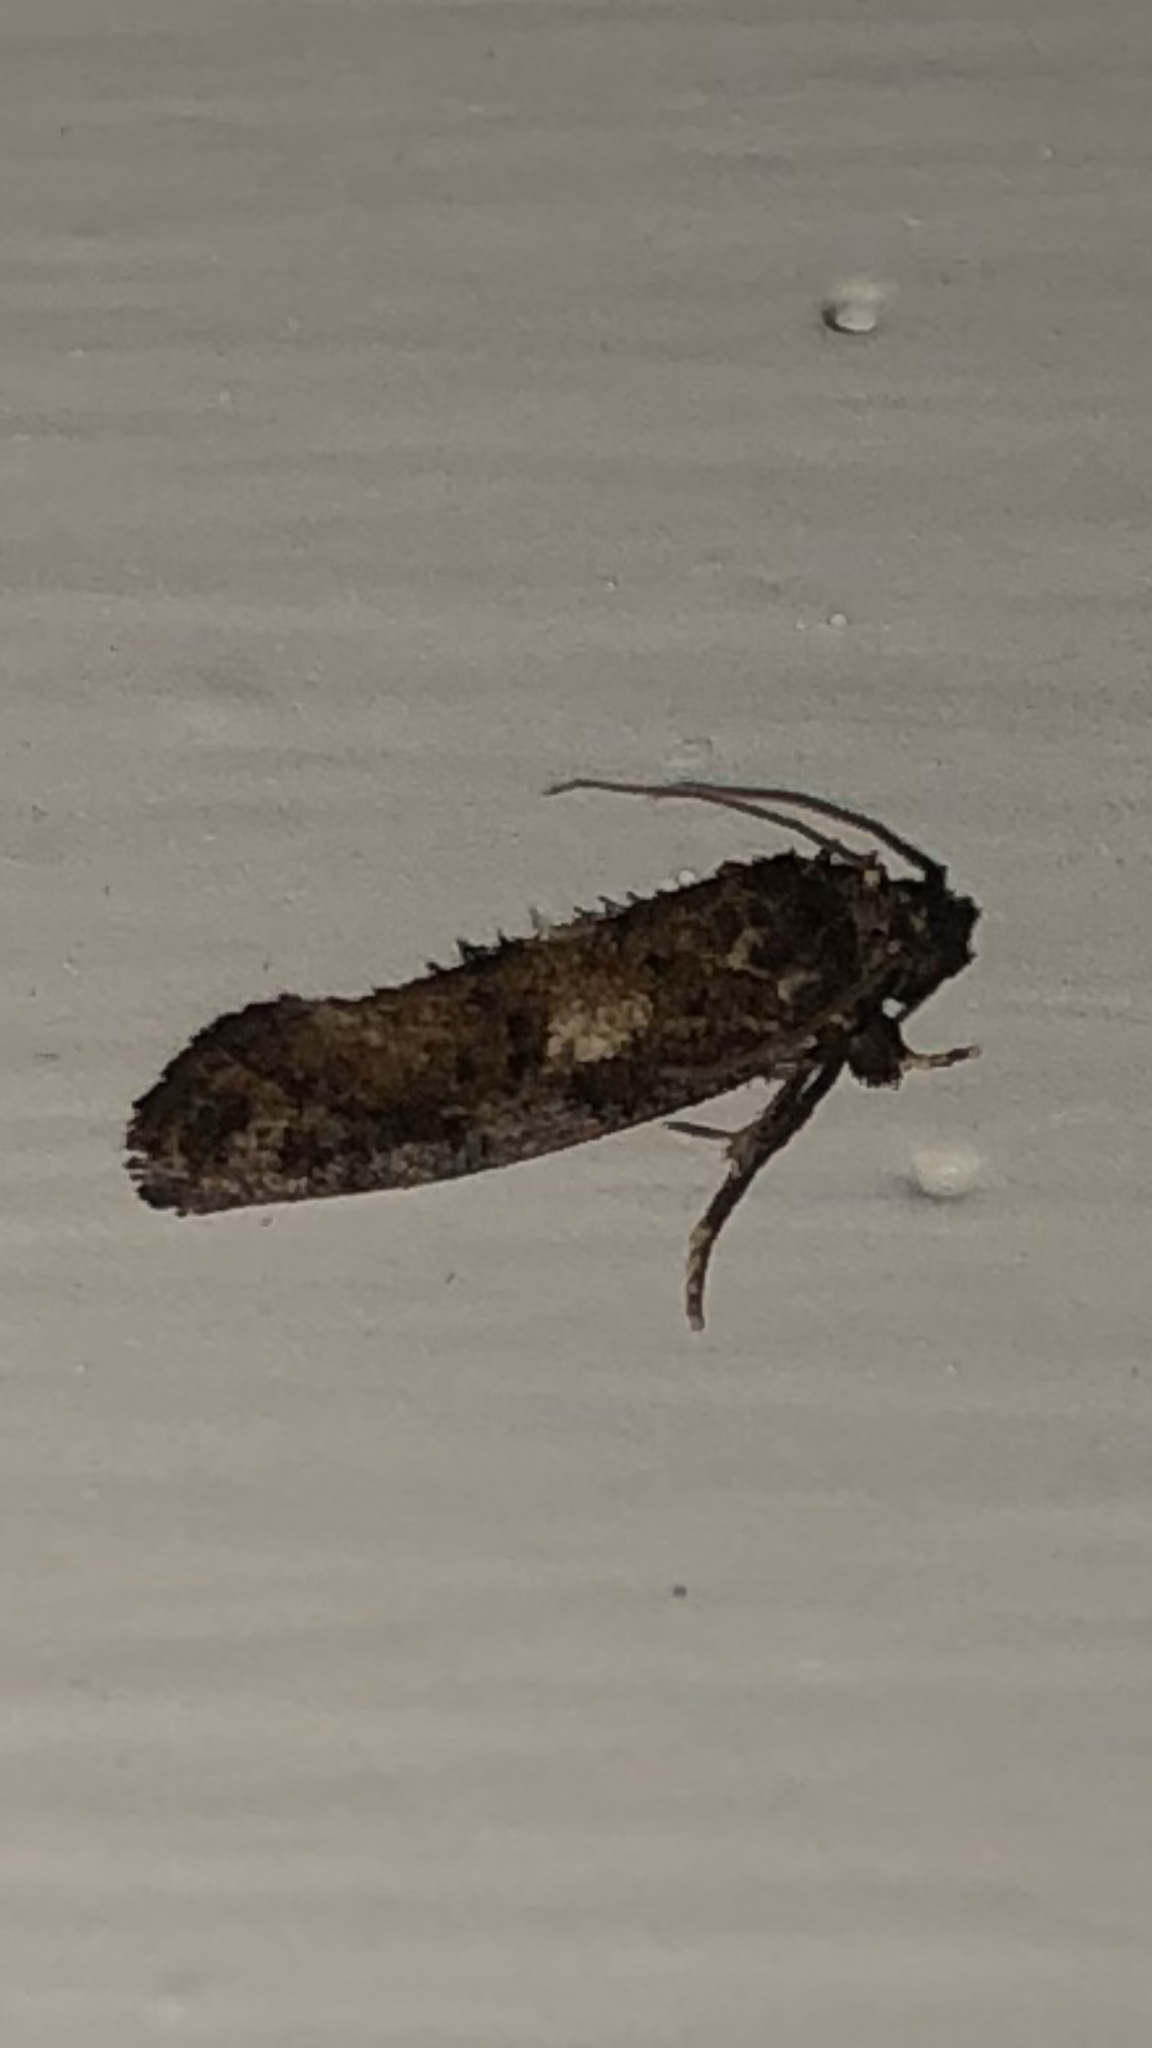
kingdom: Animalia
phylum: Arthropoda
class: Insecta
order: Lepidoptera
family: Tineidae
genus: Acrolophus
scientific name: Acrolophus cressoni
